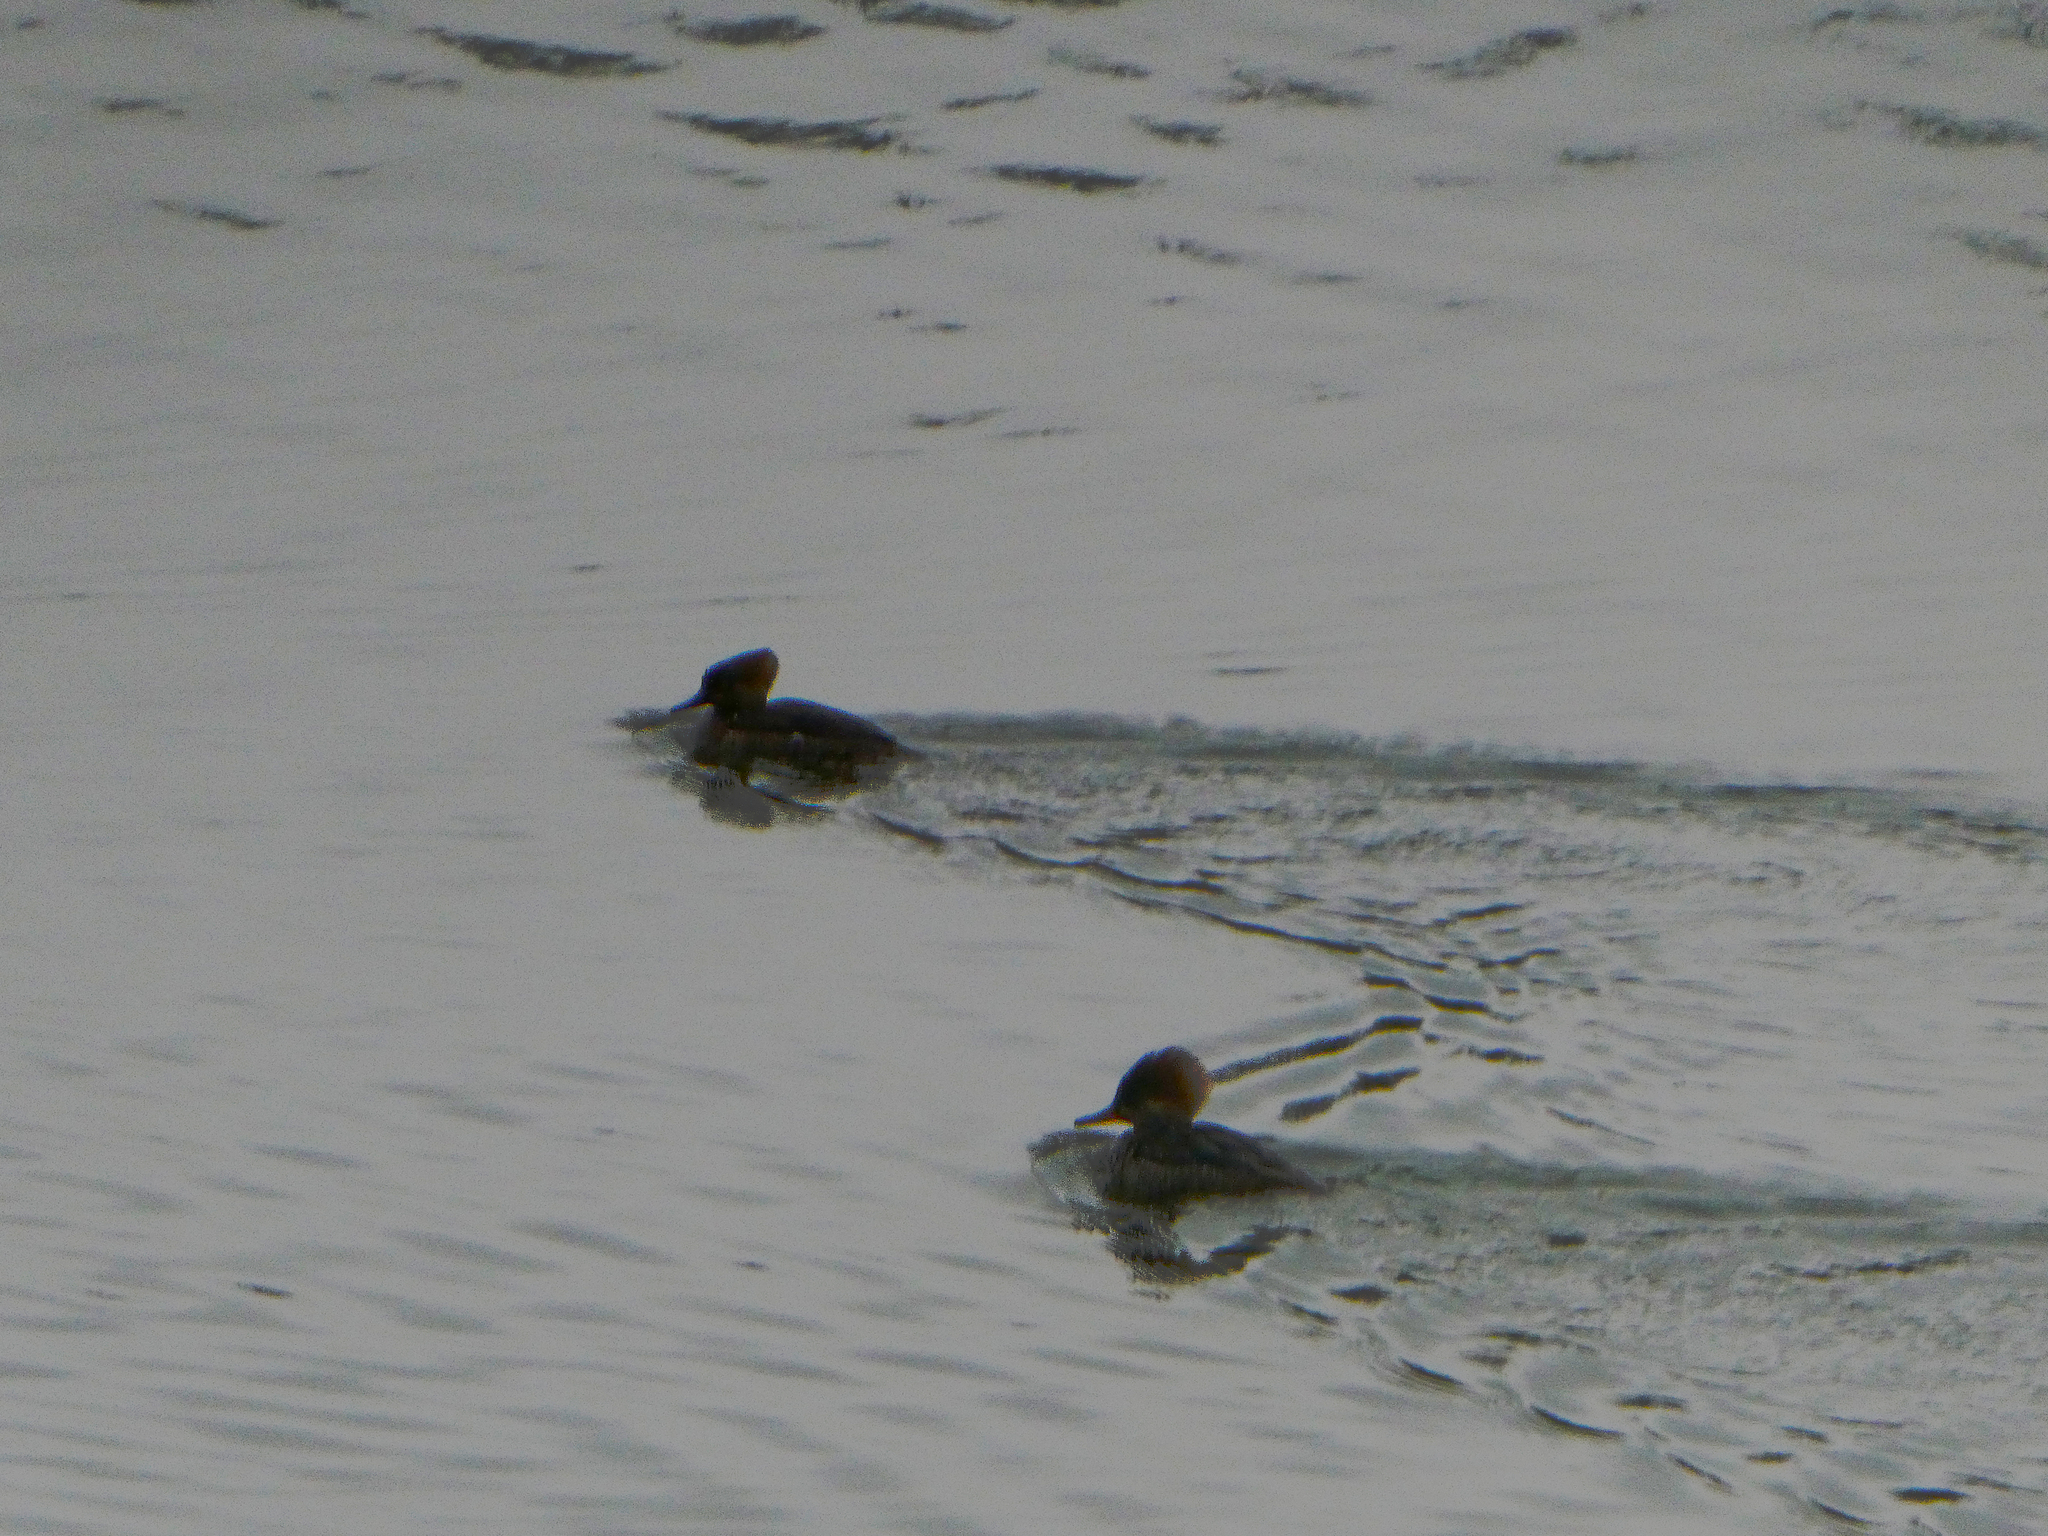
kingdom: Animalia
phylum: Chordata
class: Aves
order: Anseriformes
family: Anatidae
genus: Lophodytes
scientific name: Lophodytes cucullatus
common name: Hooded merganser
